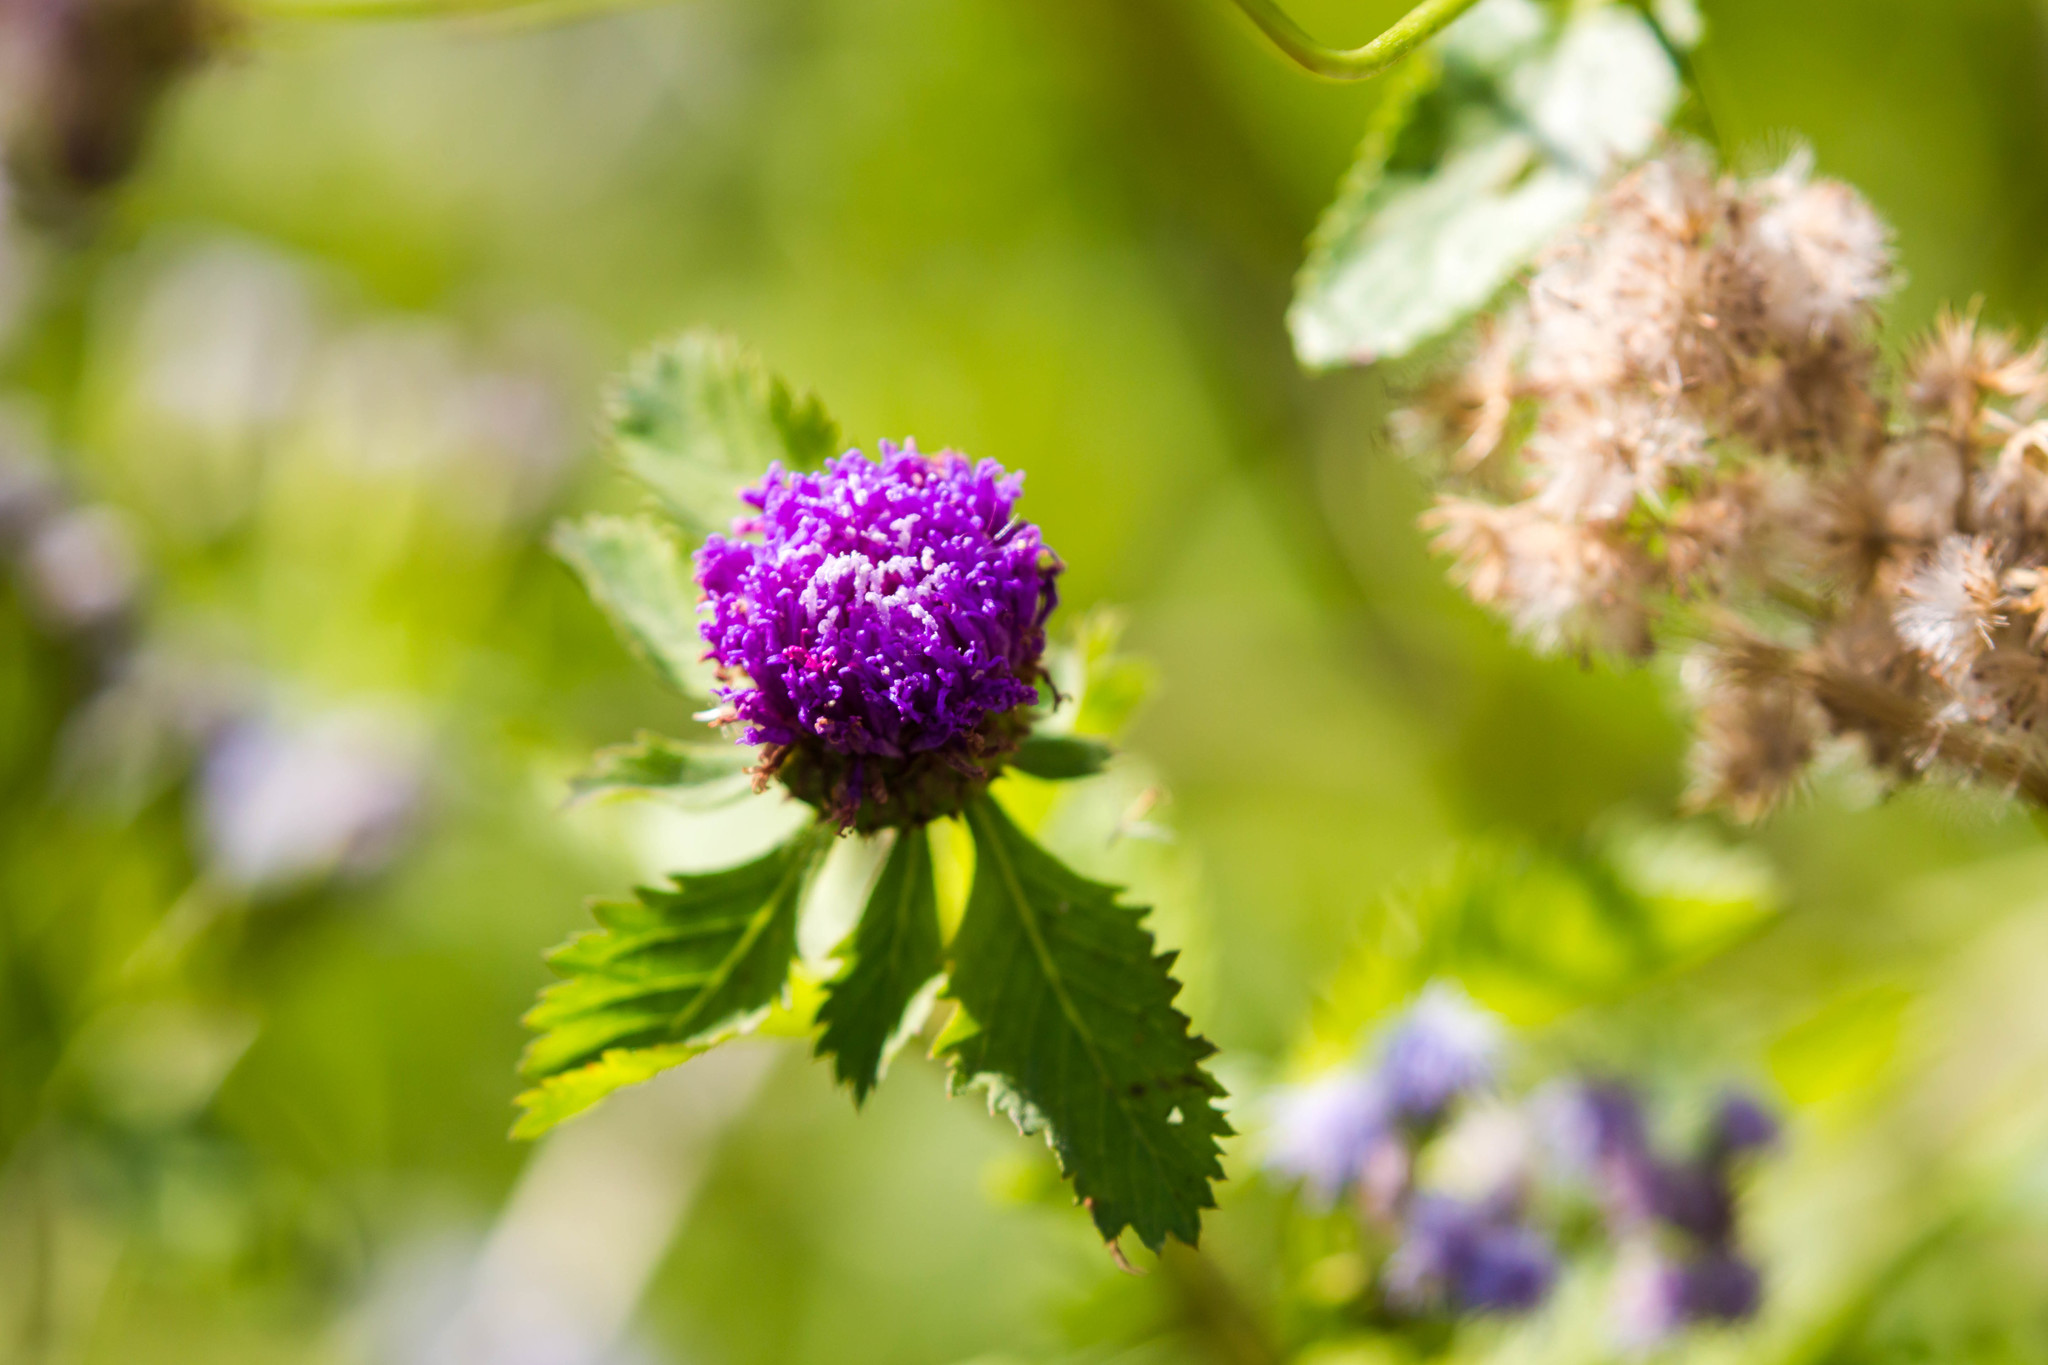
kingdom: Plantae
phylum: Tracheophyta
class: Magnoliopsida
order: Asterales
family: Asteraceae
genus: Centratherum
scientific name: Centratherum punctatum
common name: Larkdaisy
